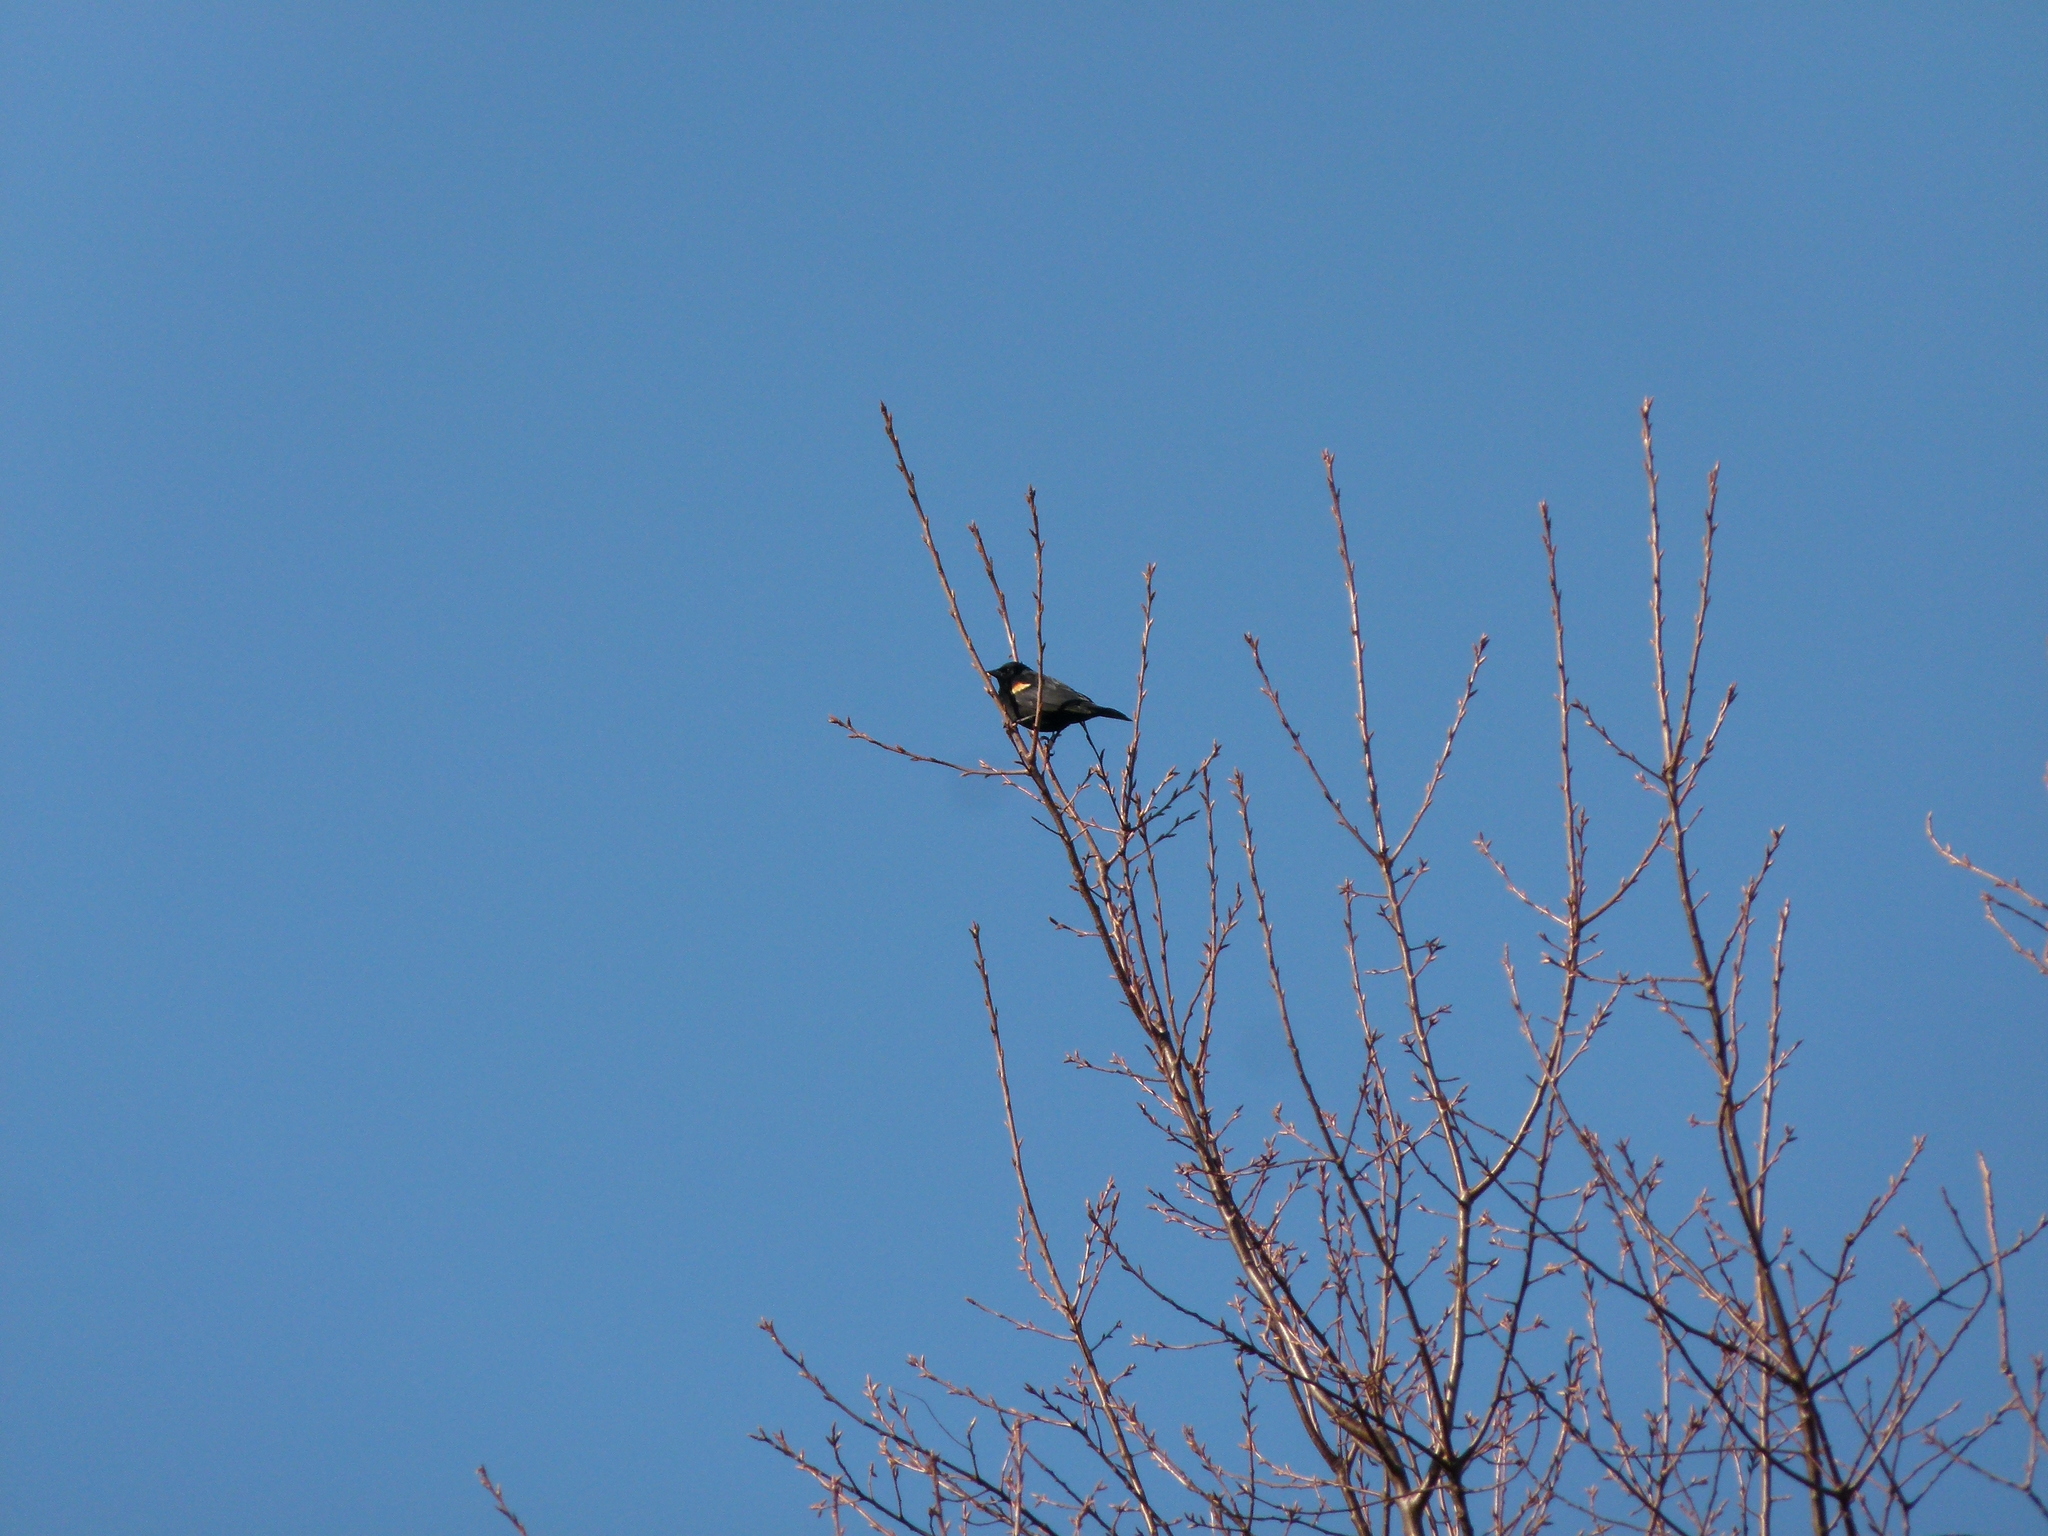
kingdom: Animalia
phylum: Chordata
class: Aves
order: Passeriformes
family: Icteridae
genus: Agelaius
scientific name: Agelaius phoeniceus
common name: Red-winged blackbird
